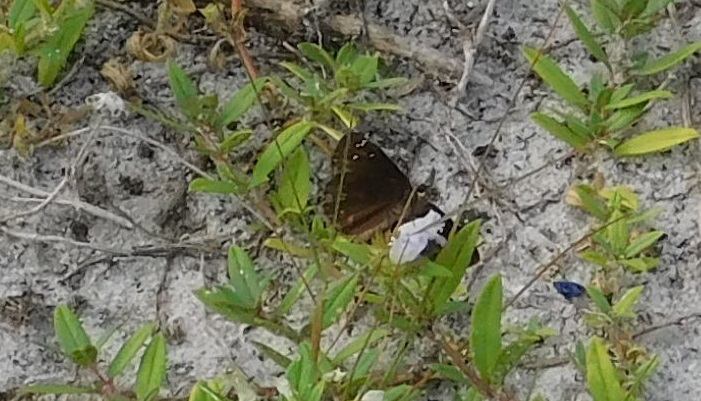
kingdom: Animalia
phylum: Arthropoda
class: Insecta
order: Lepidoptera
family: Hesperiidae
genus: Erynnis
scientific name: Erynnis horatius
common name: Horace's duskywing
